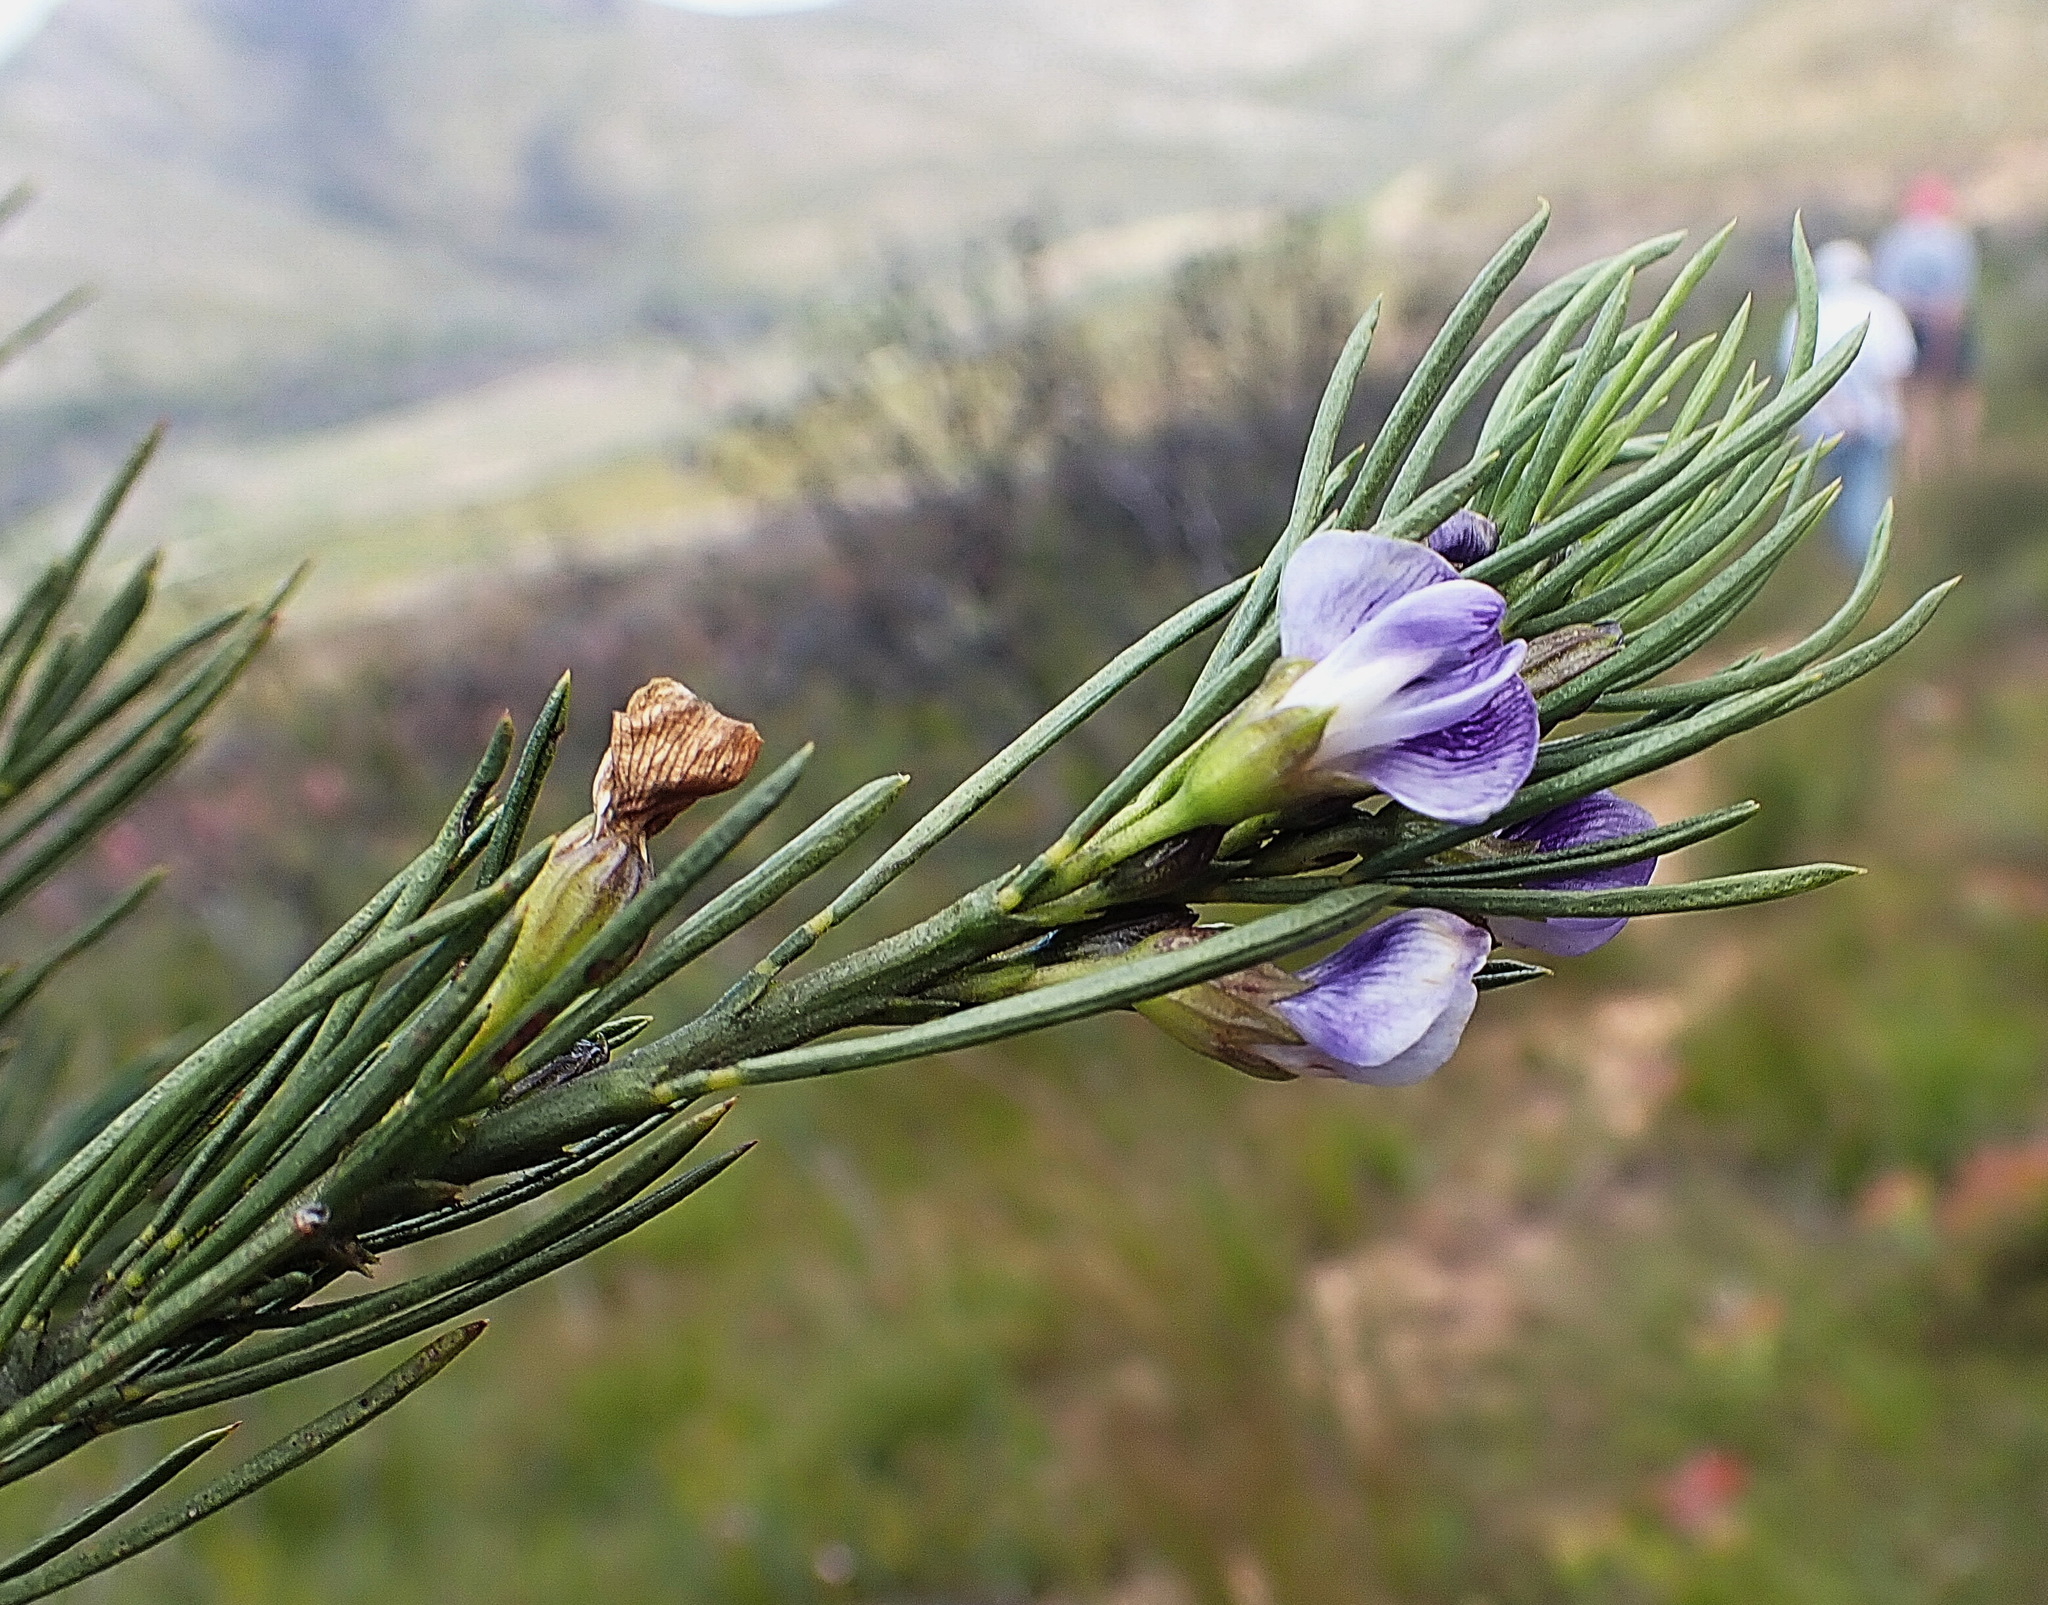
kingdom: Plantae
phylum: Tracheophyta
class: Magnoliopsida
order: Fabales
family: Fabaceae
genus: Psoralea
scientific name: Psoralea diturnerae
